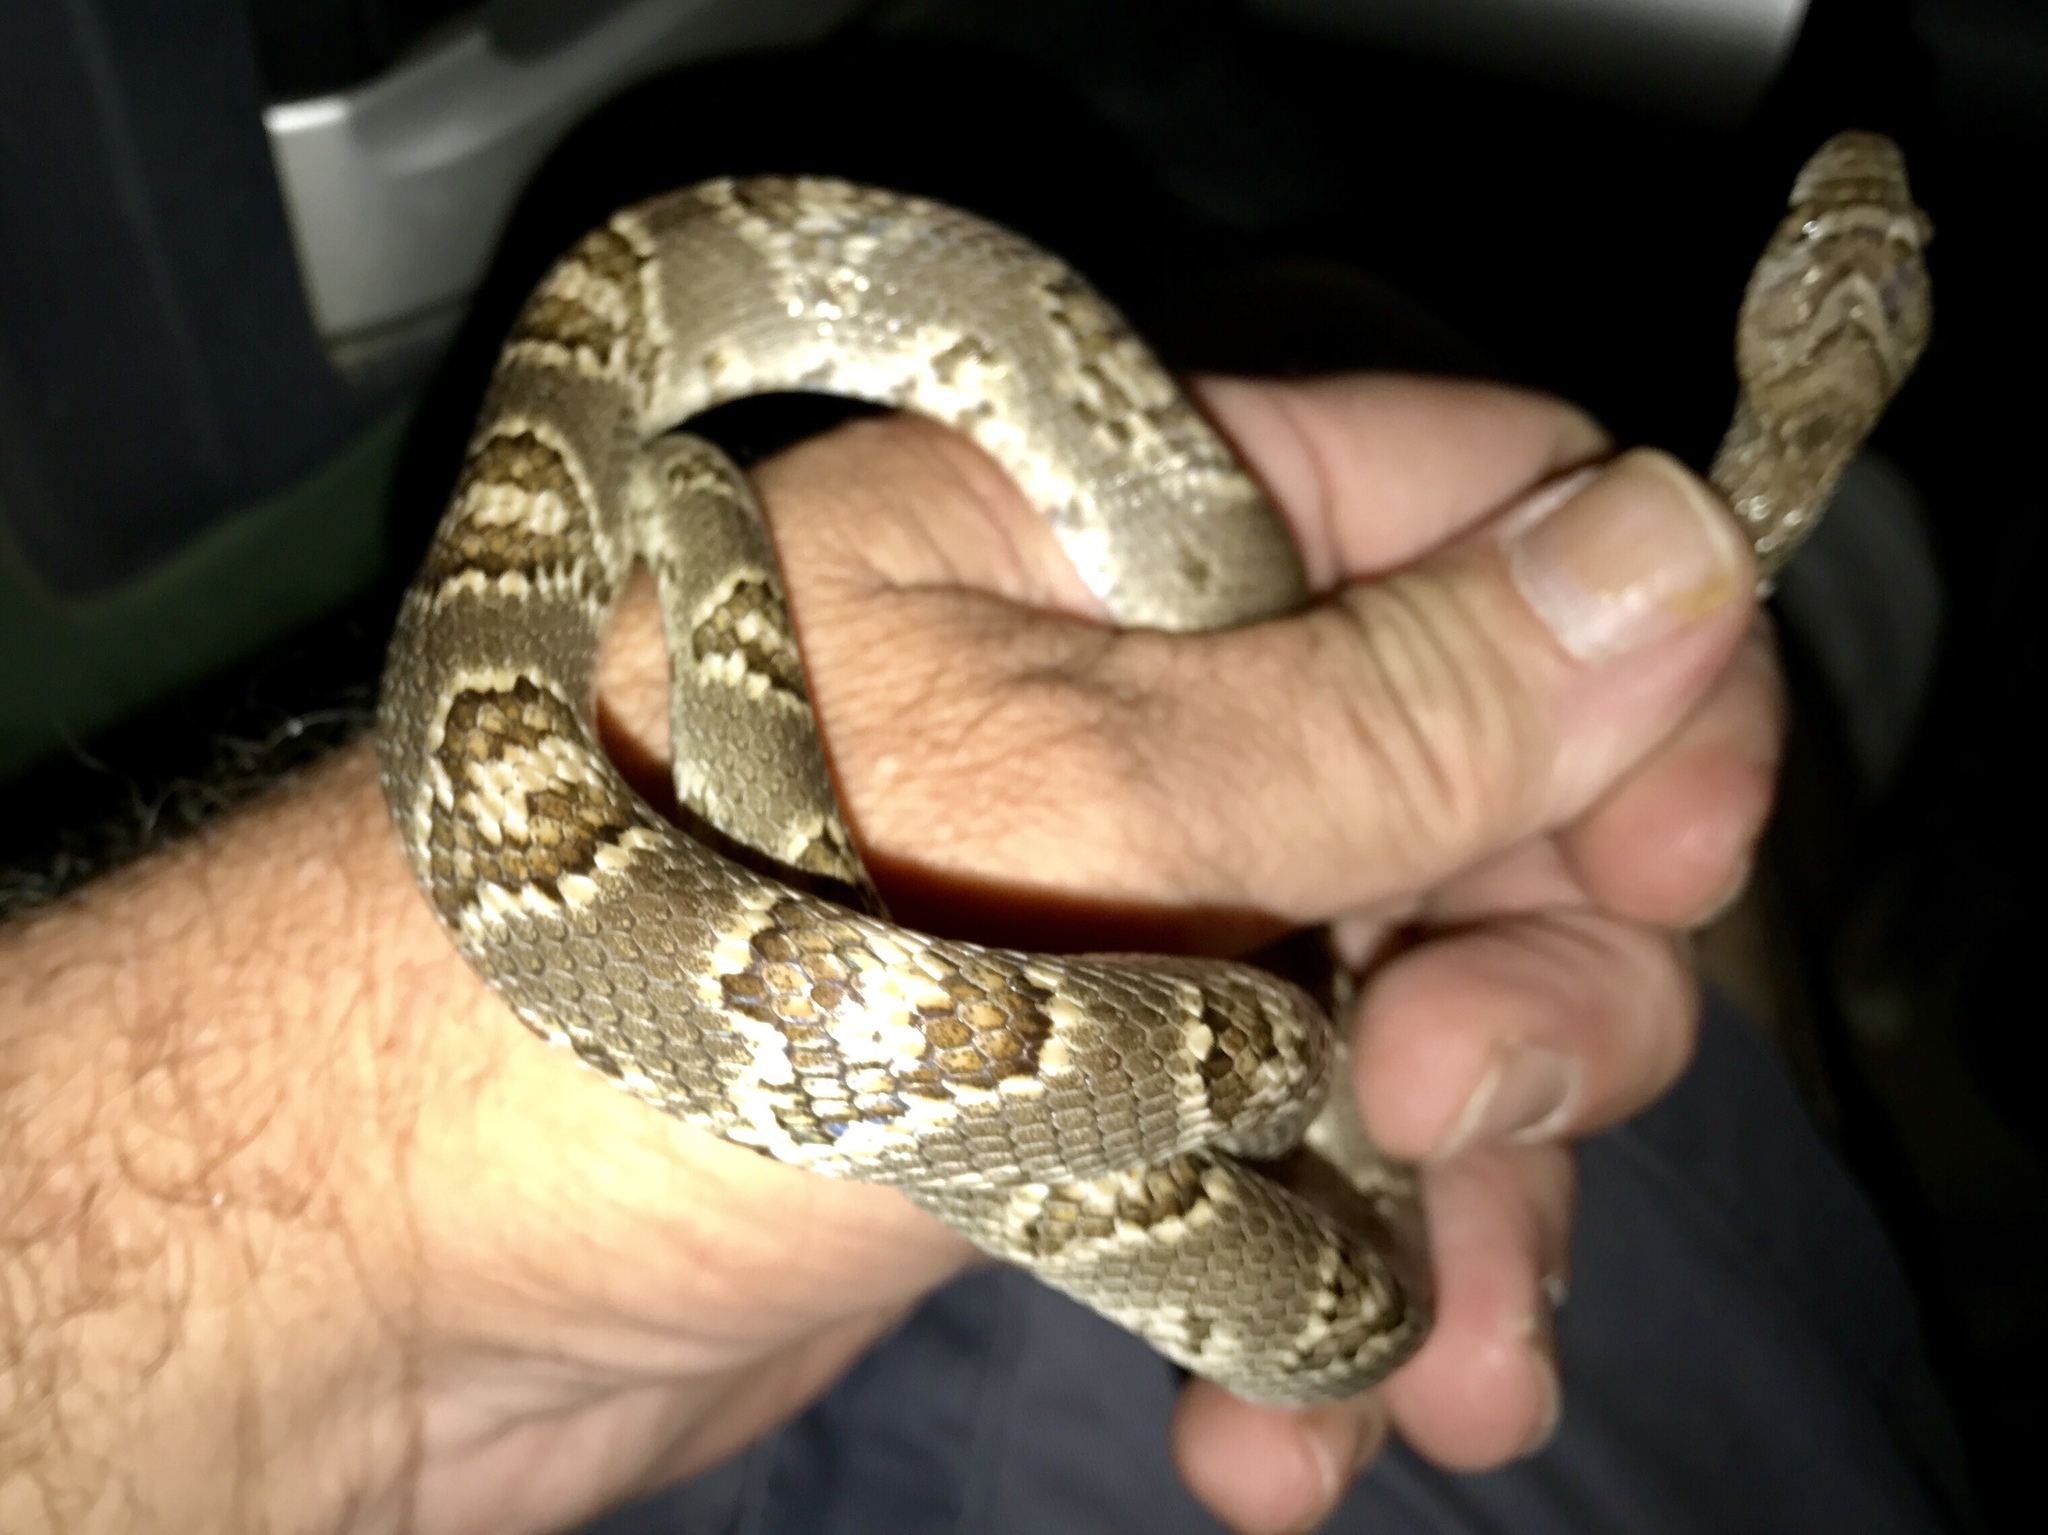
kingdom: Animalia
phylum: Chordata
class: Squamata
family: Colubridae
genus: Trimorphodon
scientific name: Trimorphodon lambda
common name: Sonoran lyre snake
